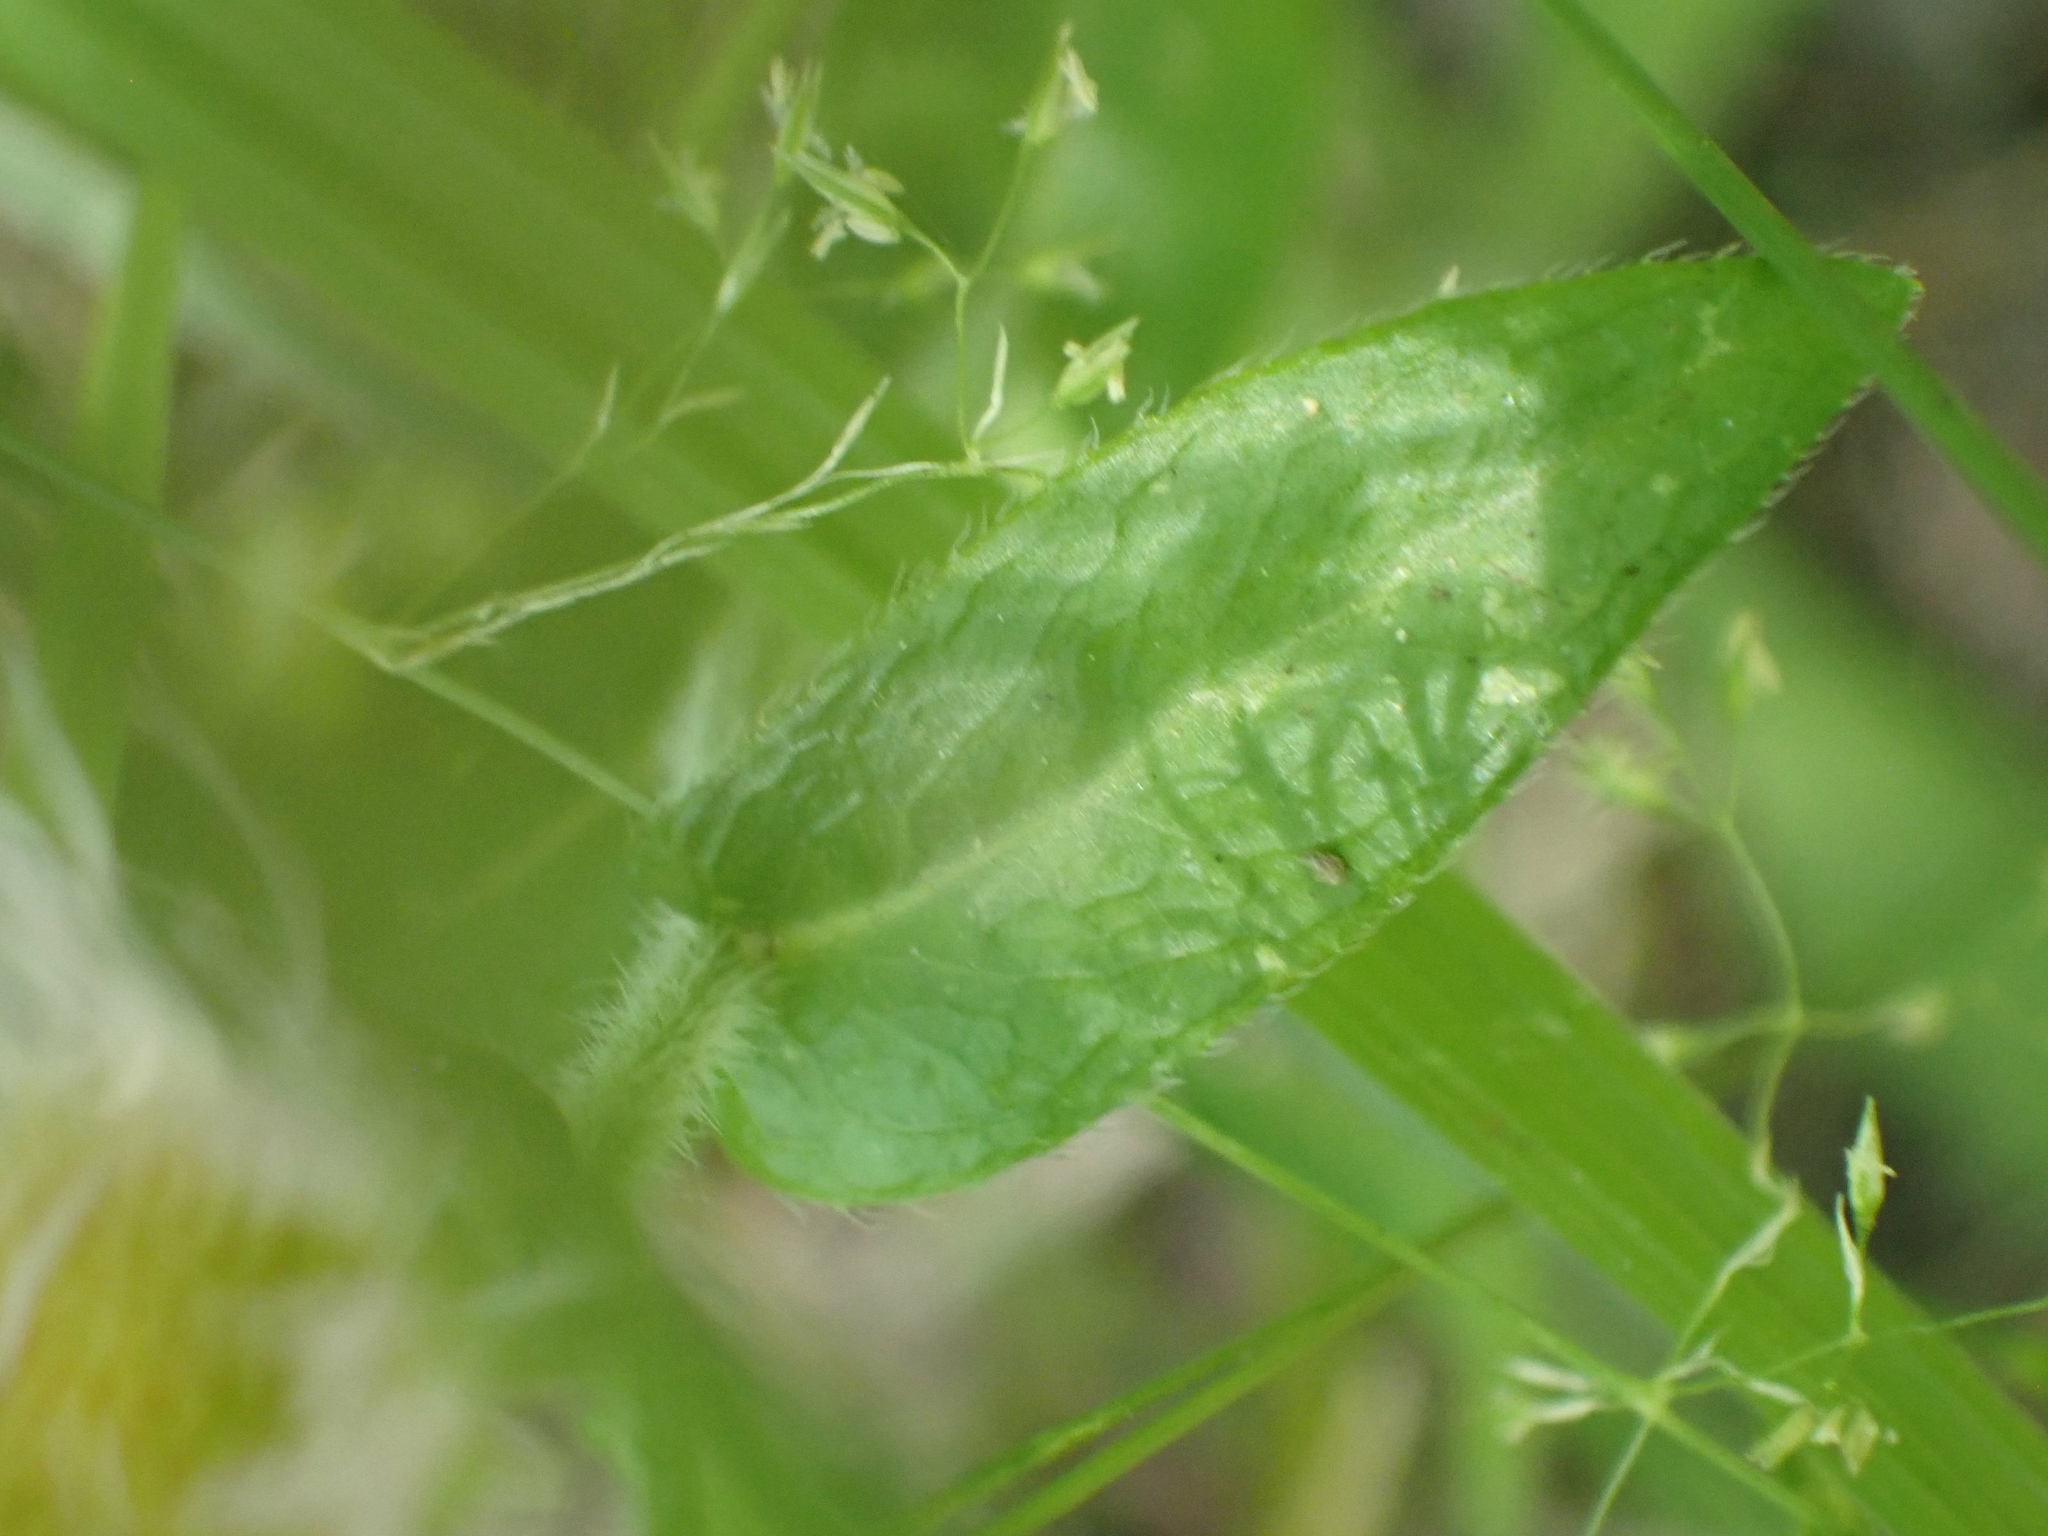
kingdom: Plantae
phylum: Tracheophyta
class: Magnoliopsida
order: Asterales
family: Asteraceae
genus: Erigeron
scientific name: Erigeron philadelphicus
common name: Robin's-plantain
